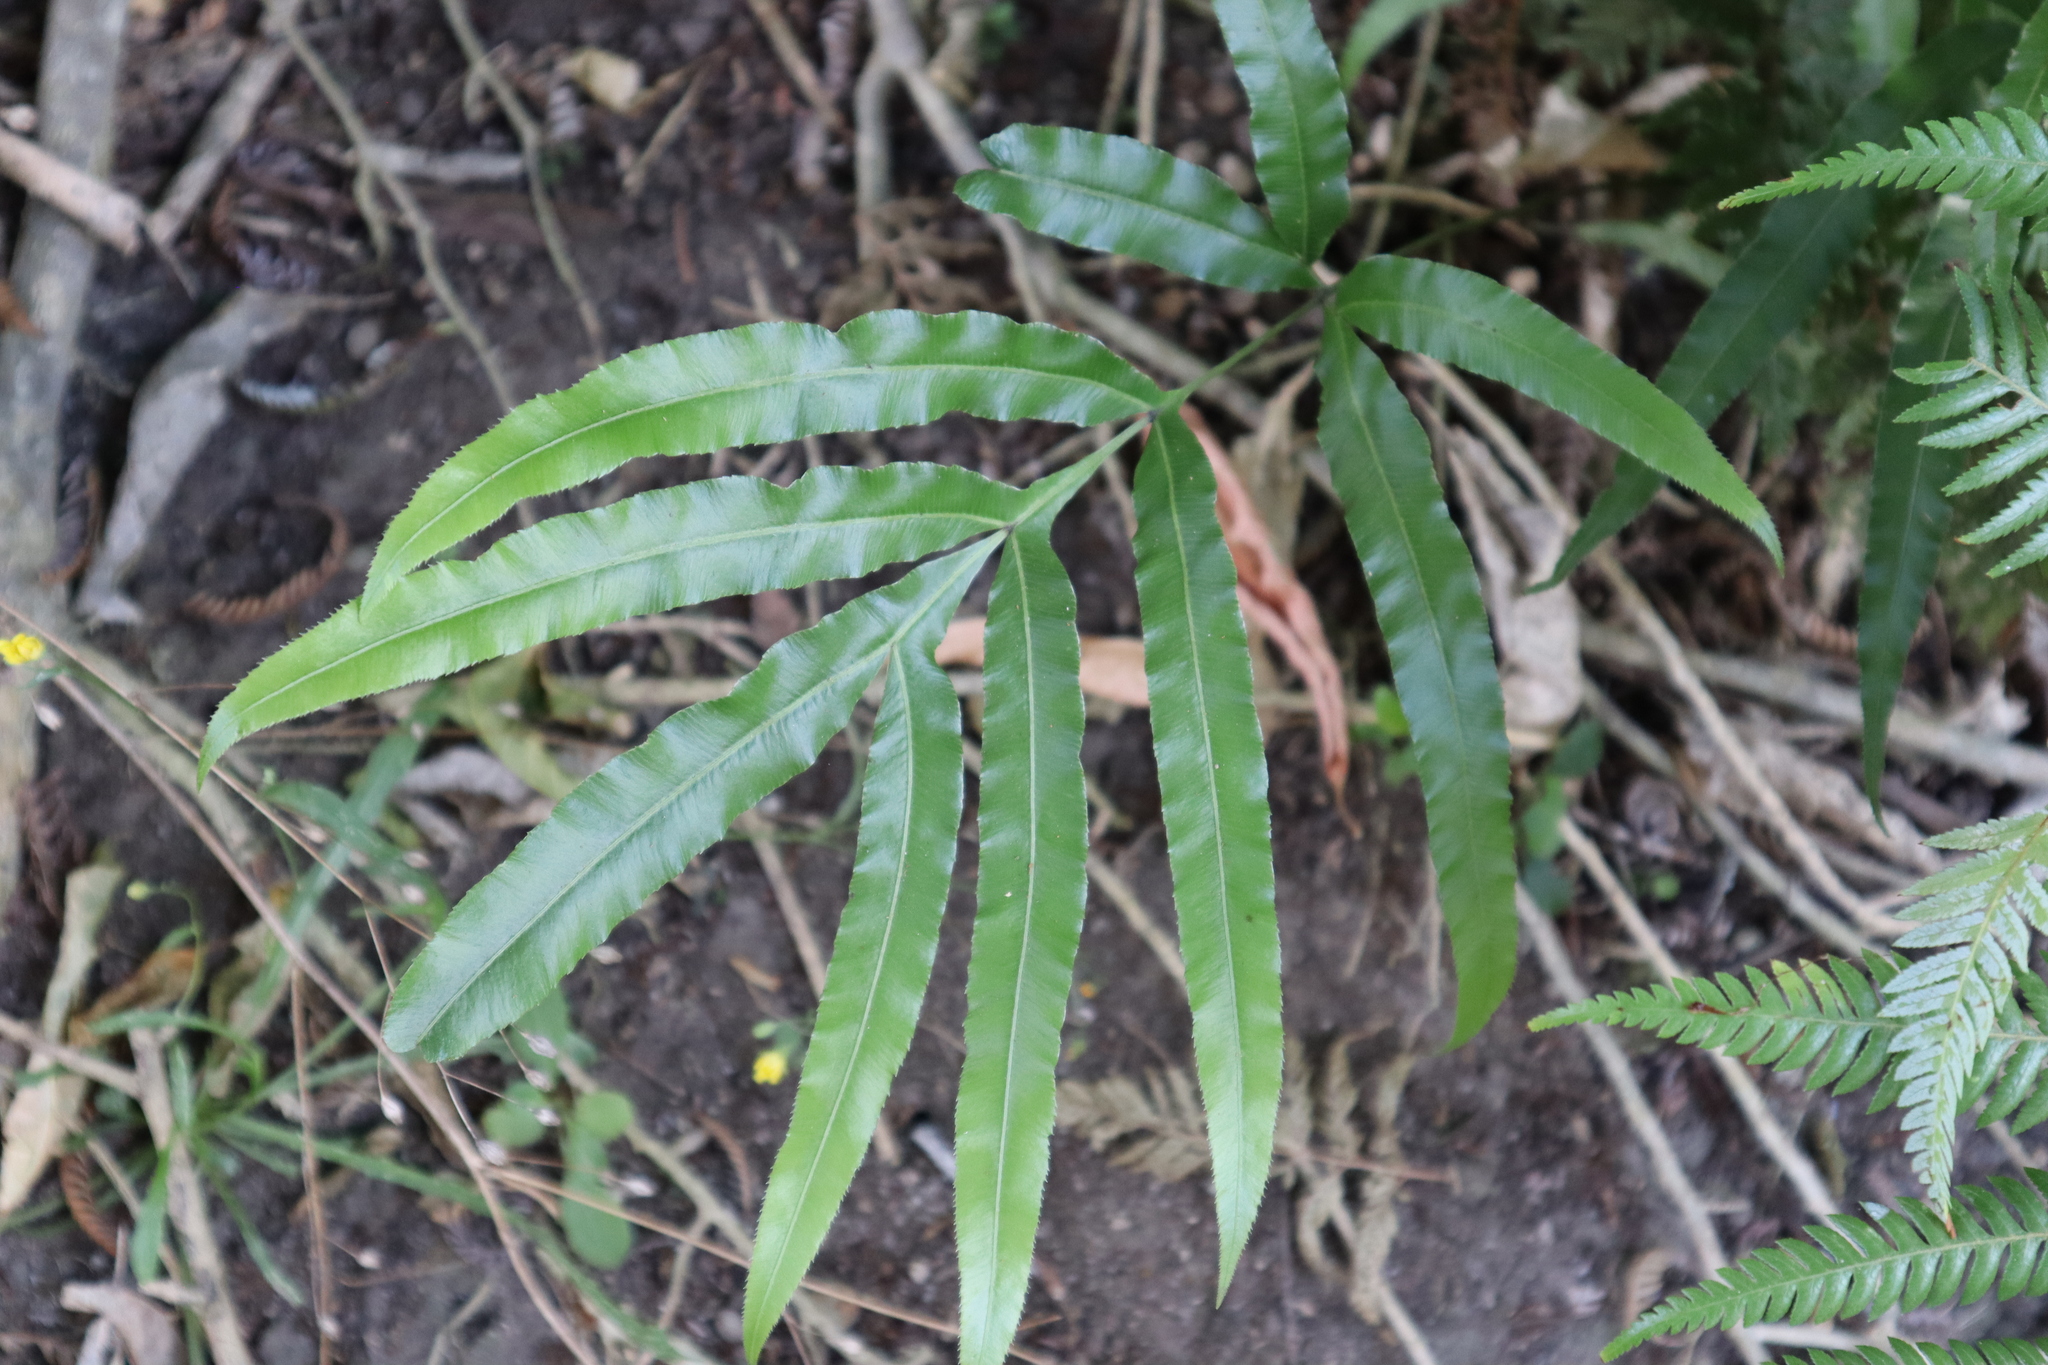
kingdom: Plantae
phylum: Tracheophyta
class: Polypodiopsida
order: Polypodiales
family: Pteridaceae
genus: Pteris
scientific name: Pteris cretica
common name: Ribbon fern
